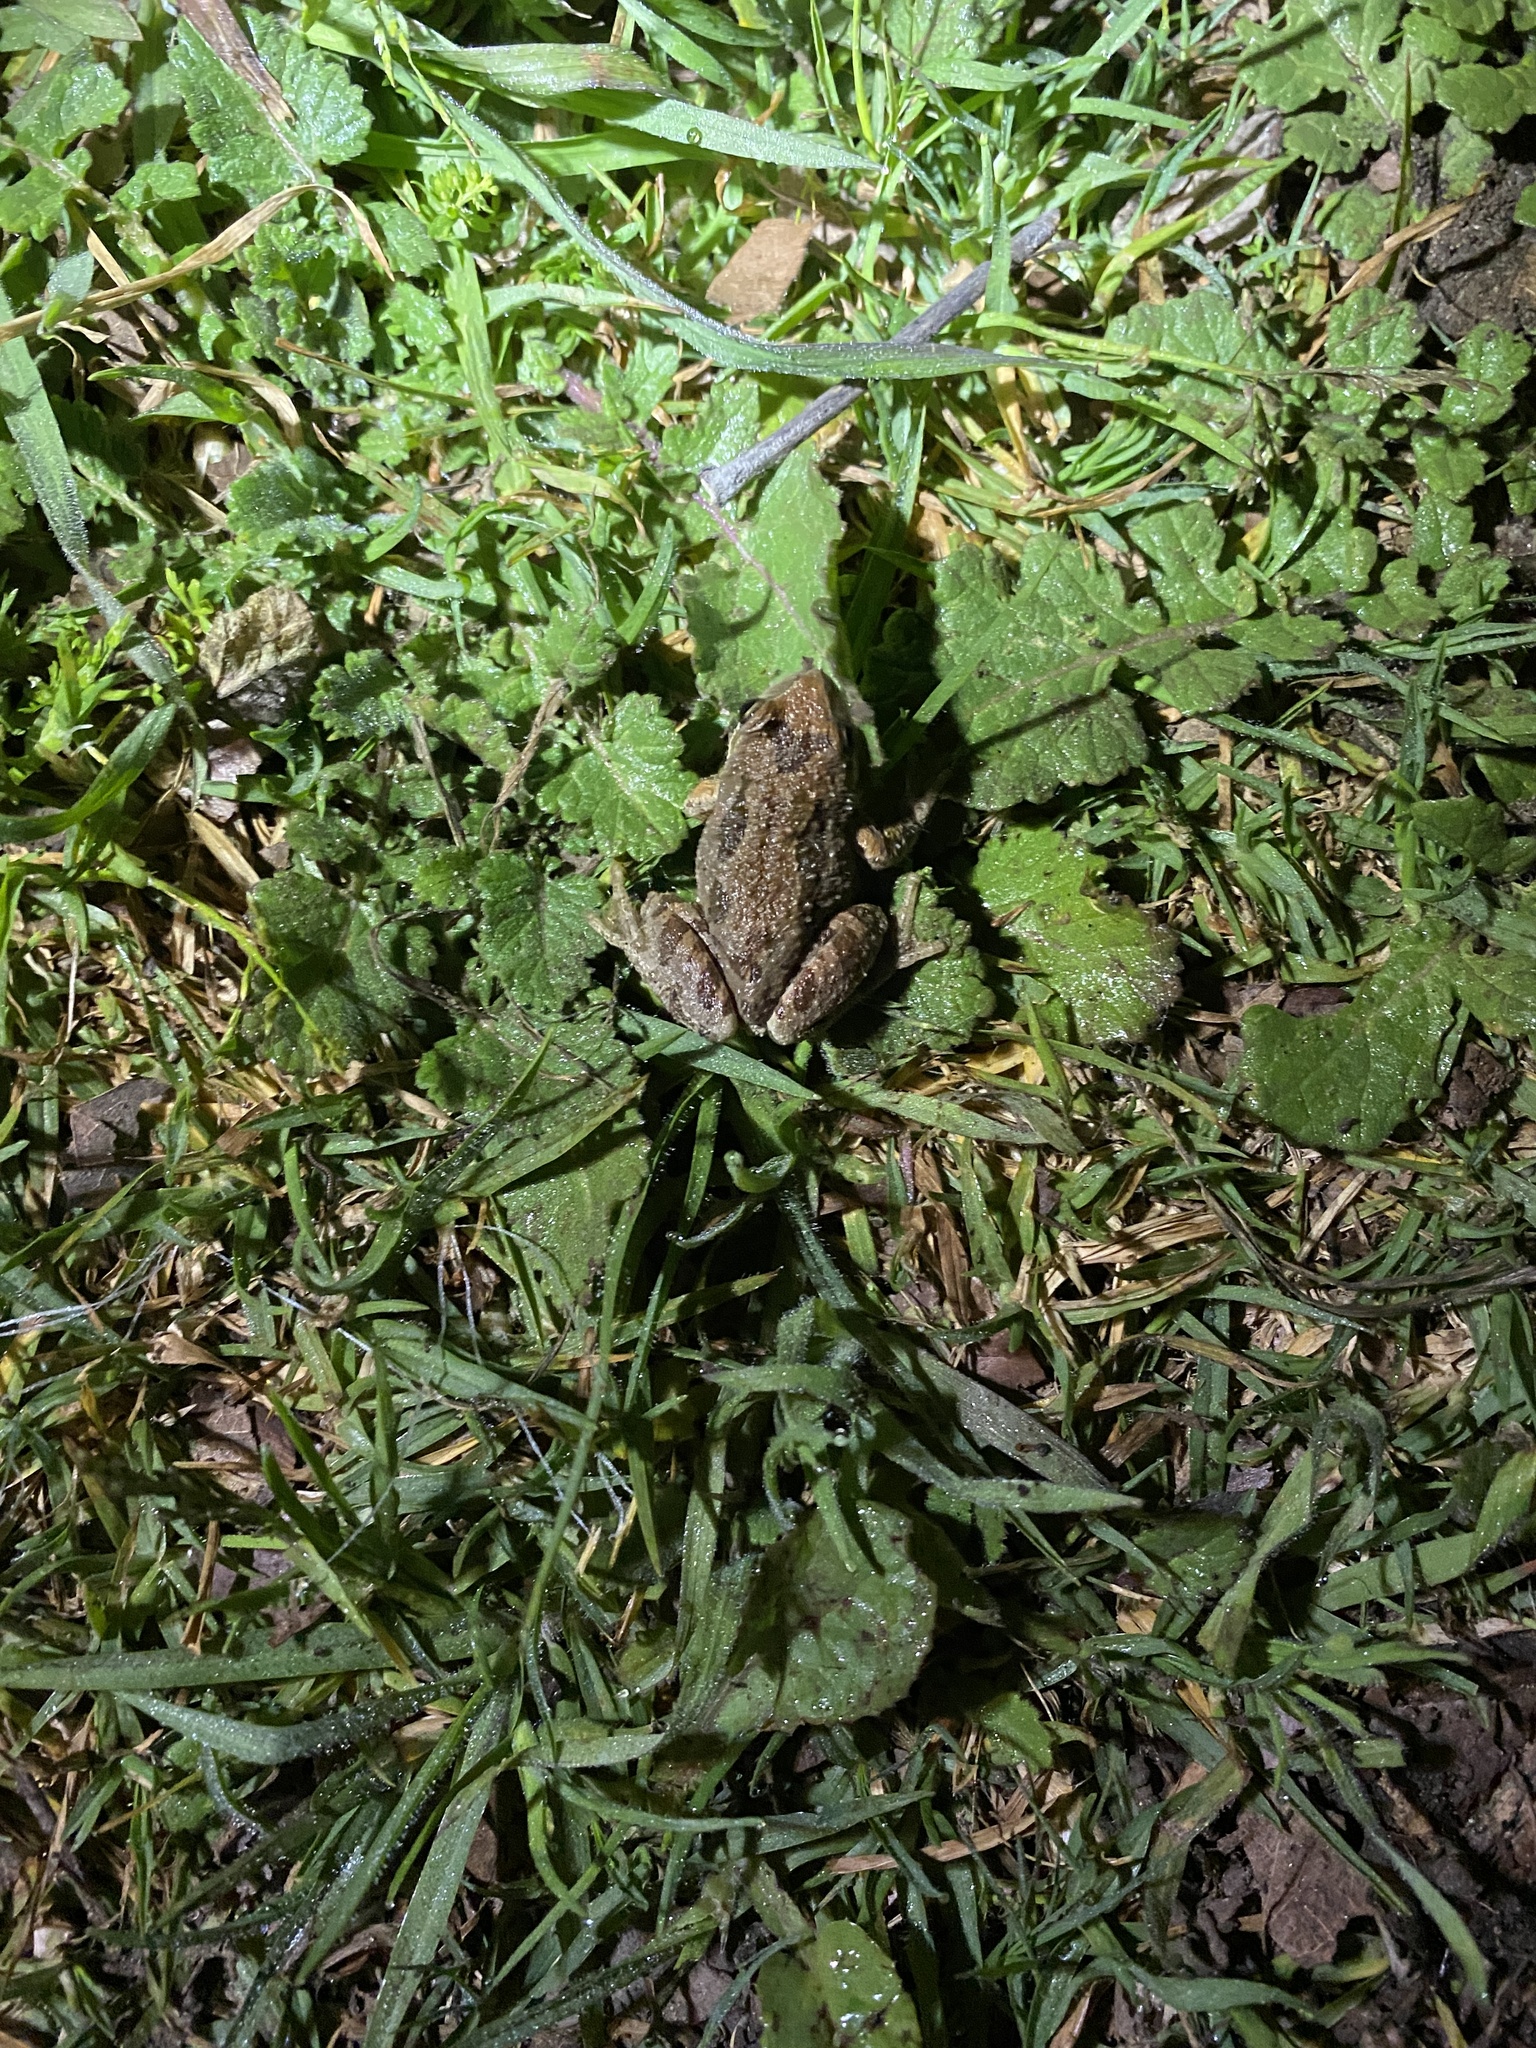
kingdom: Animalia
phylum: Chordata
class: Amphibia
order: Anura
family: Hylidae
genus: Pseudacris
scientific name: Pseudacris regilla
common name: Pacific chorus frog
